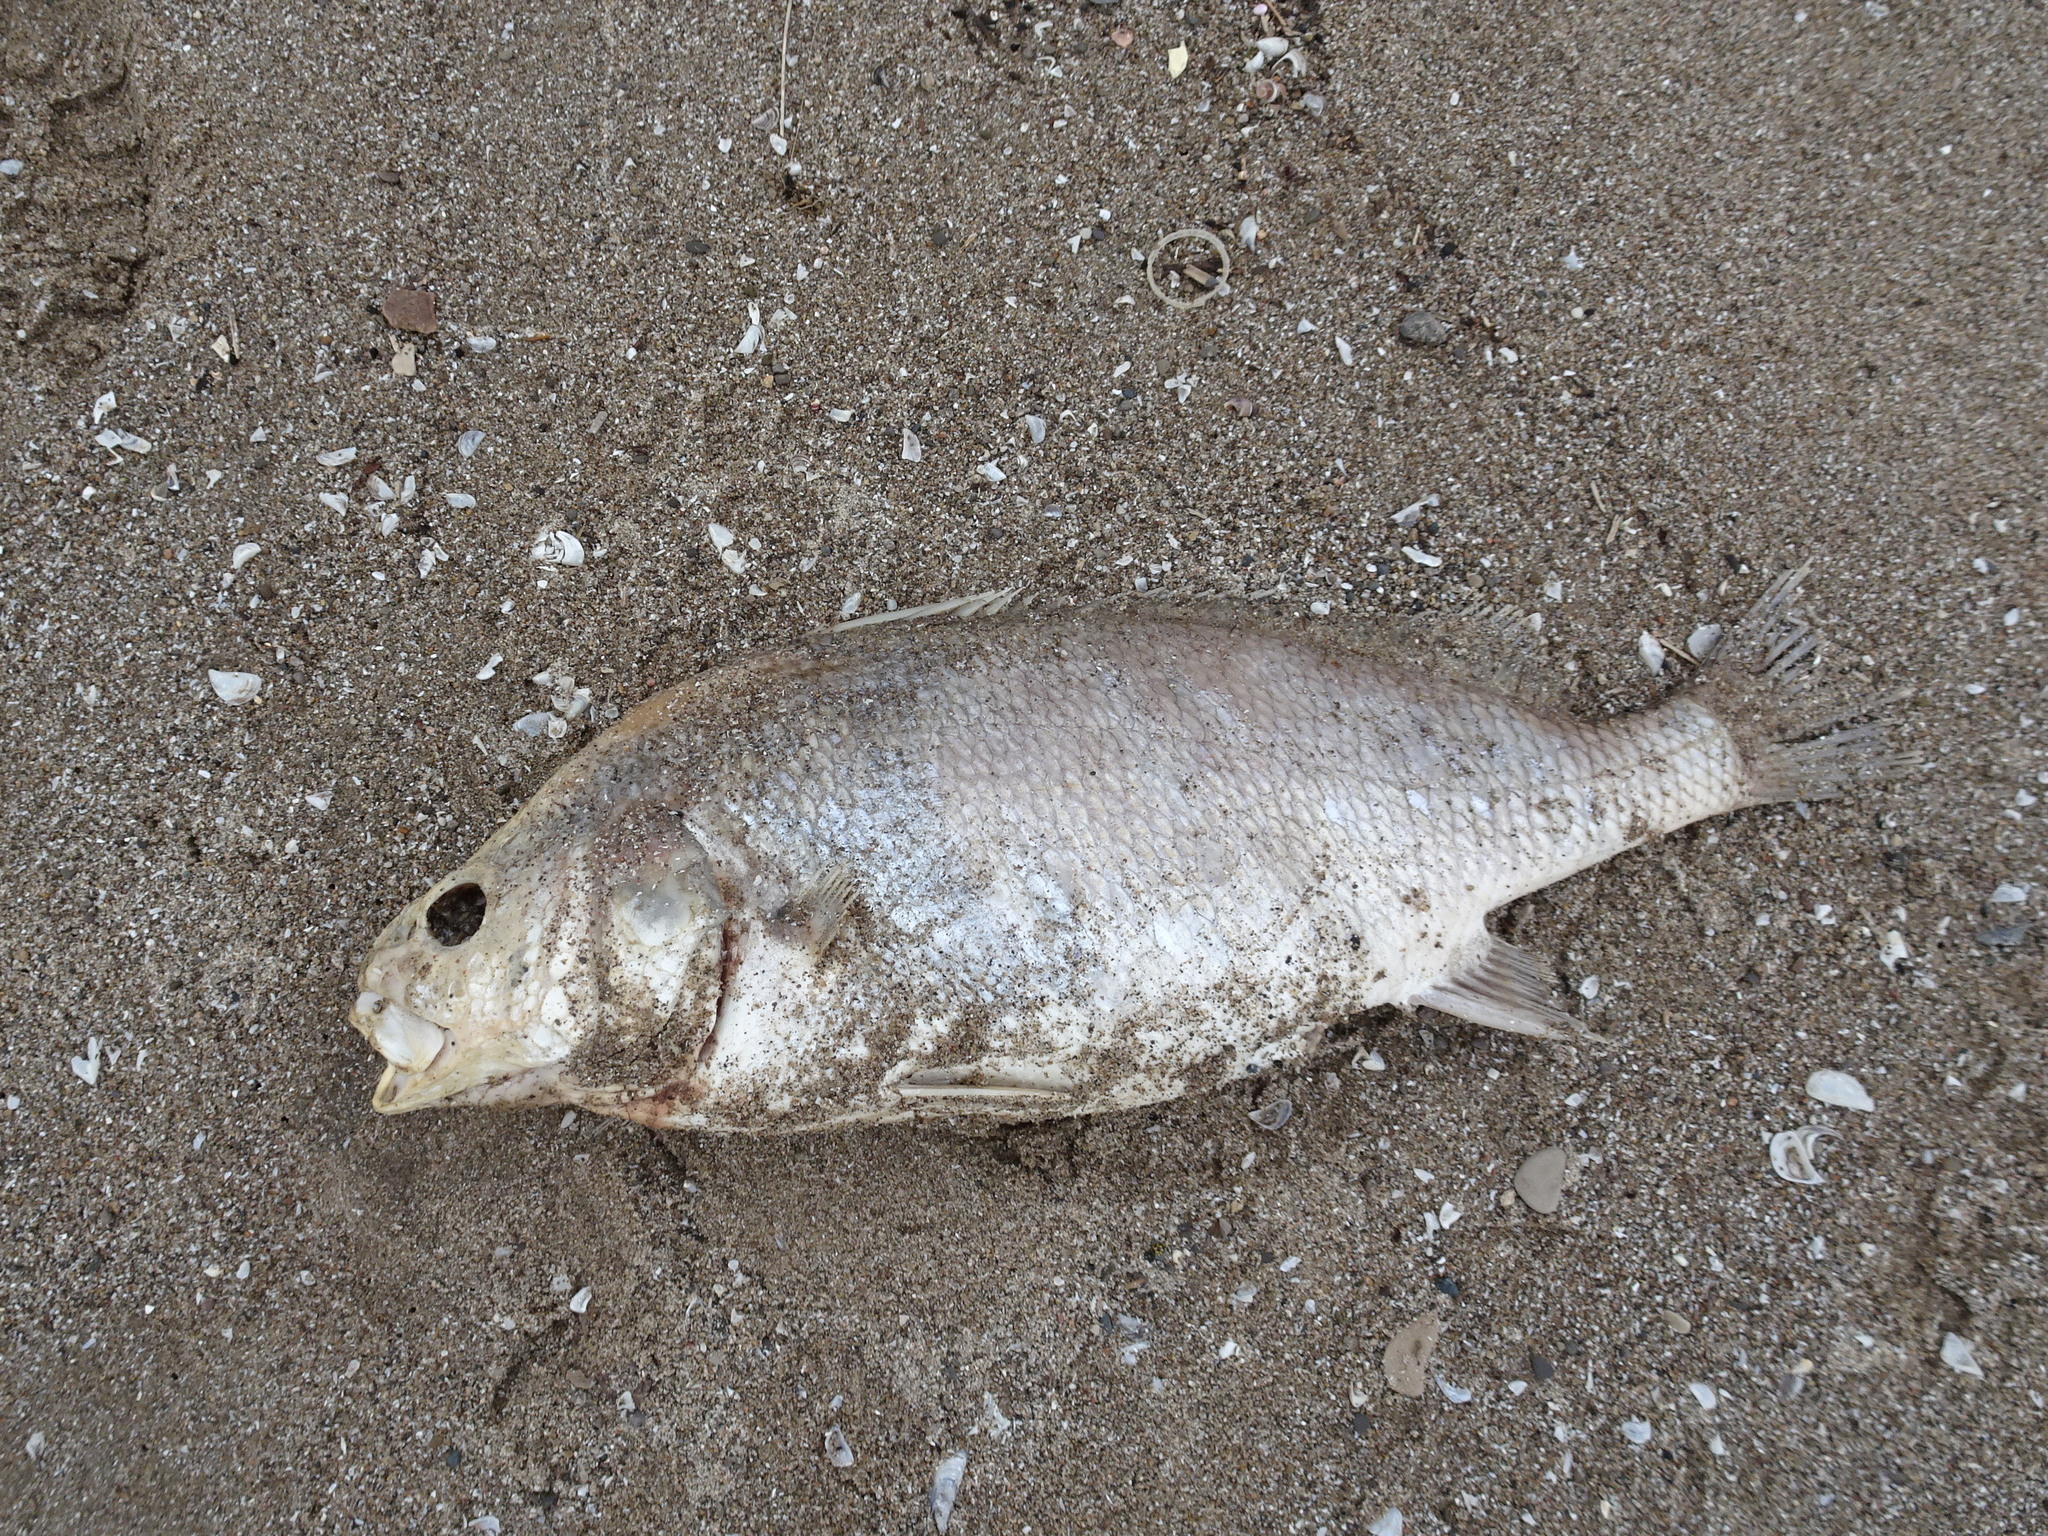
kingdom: Animalia
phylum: Chordata
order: Perciformes
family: Sciaenidae
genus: Aplodinotus
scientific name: Aplodinotus grunniens
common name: Freshwater drum
